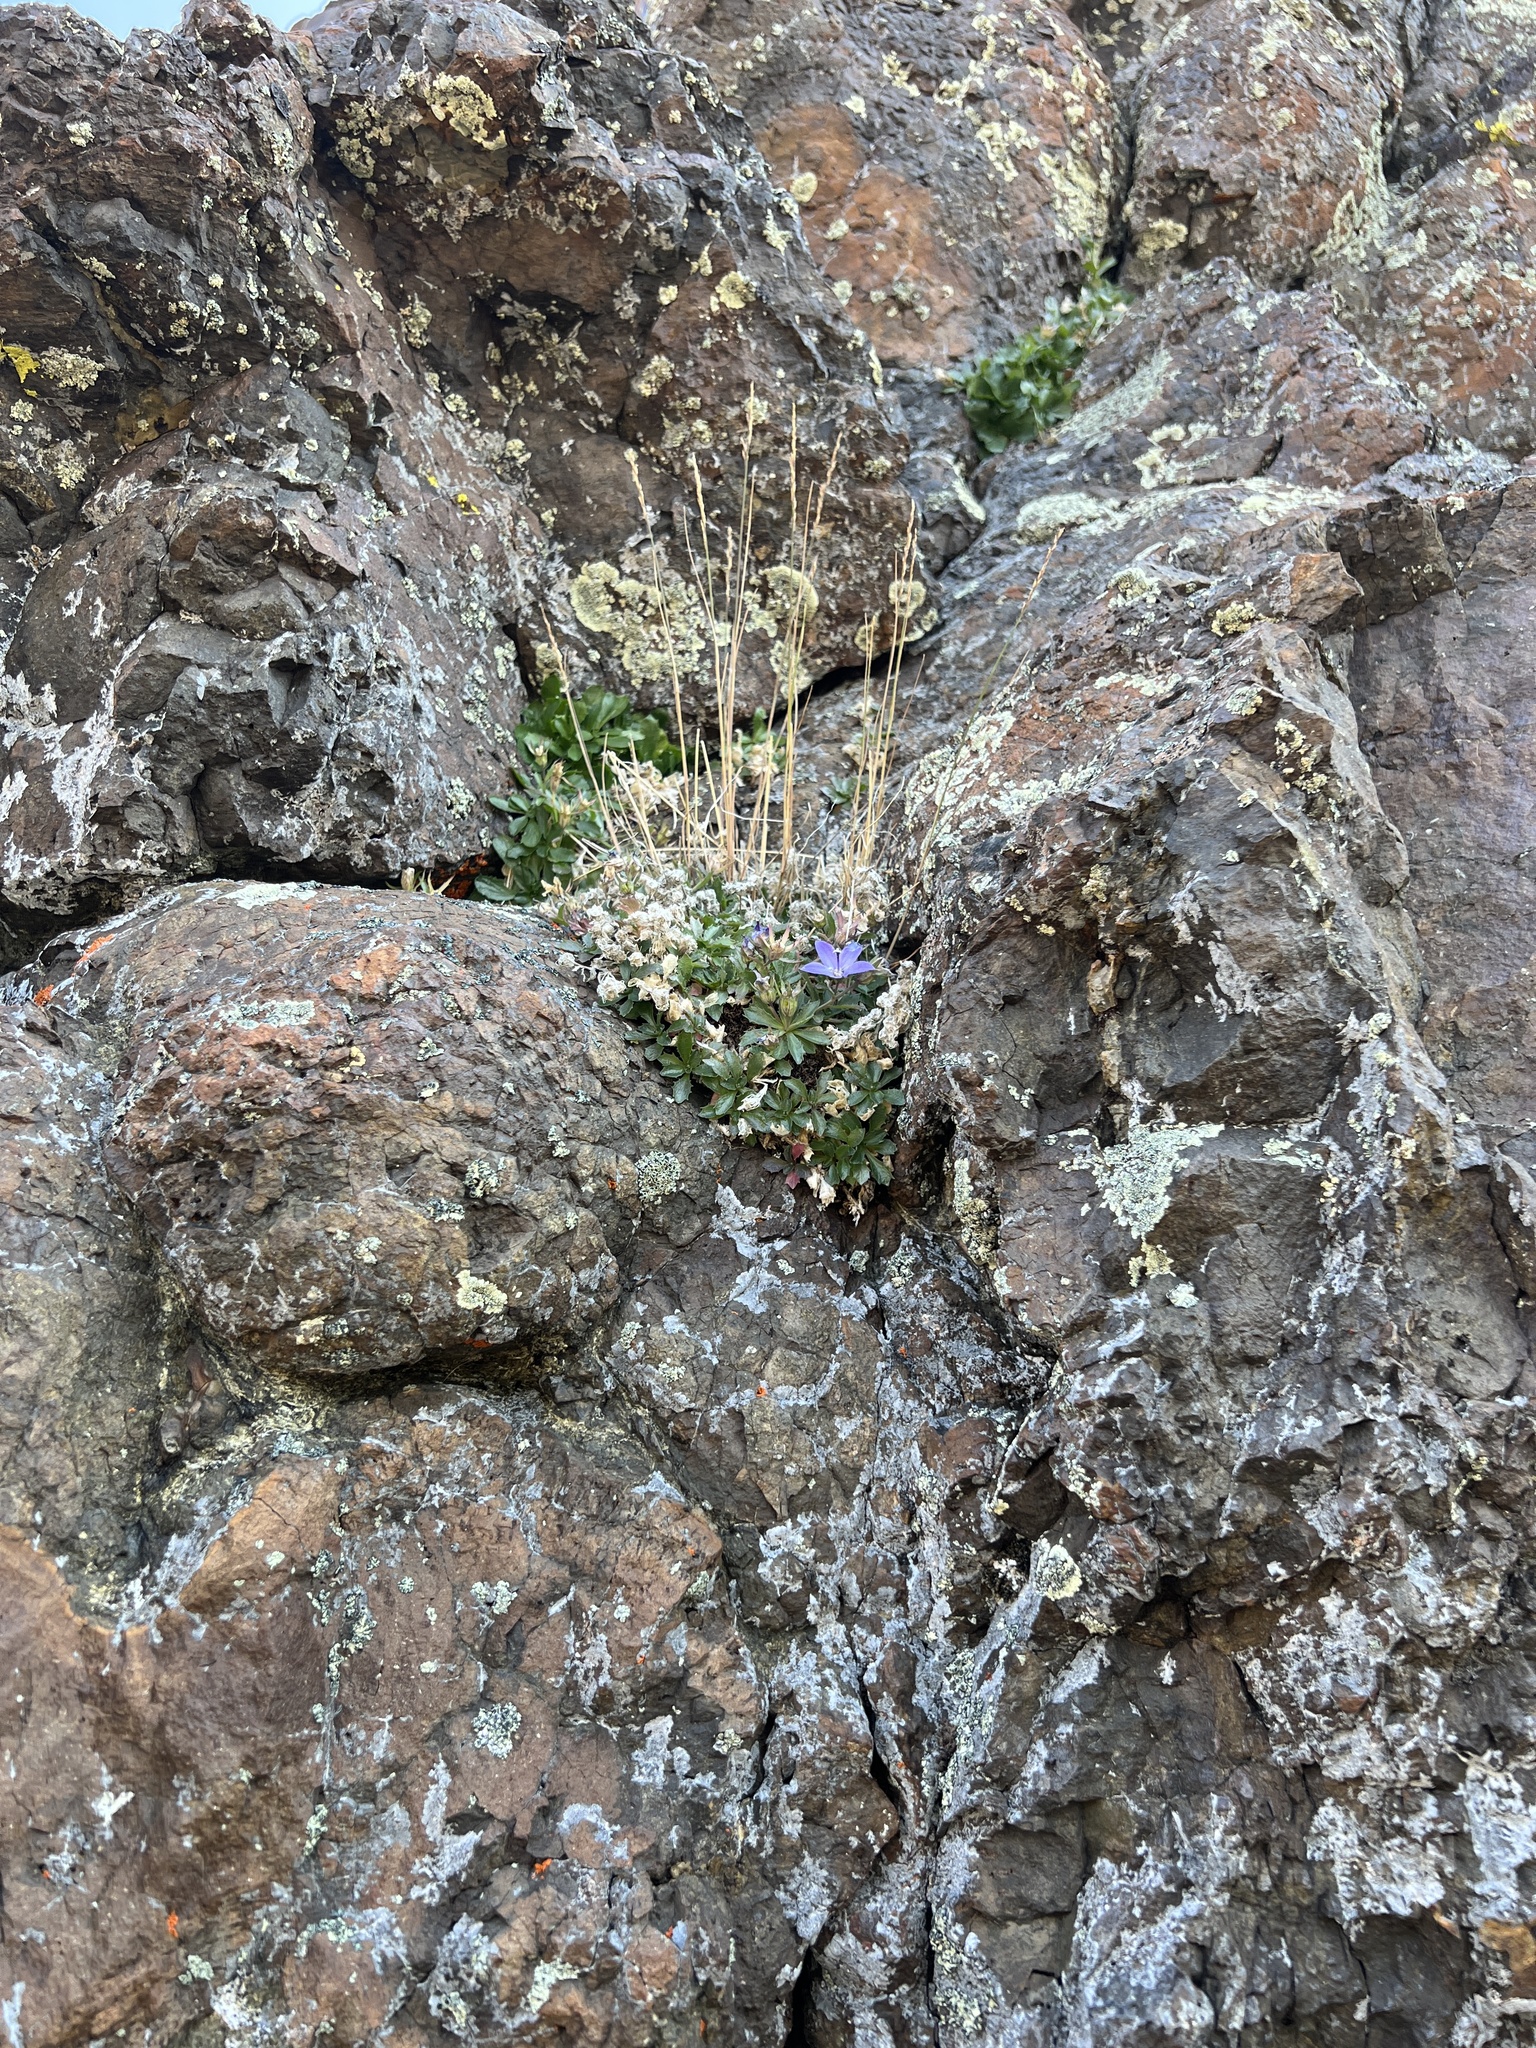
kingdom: Plantae
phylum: Tracheophyta
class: Magnoliopsida
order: Asterales
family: Campanulaceae
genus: Campanula
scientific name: Campanula piperi
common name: Olympic bellflower
